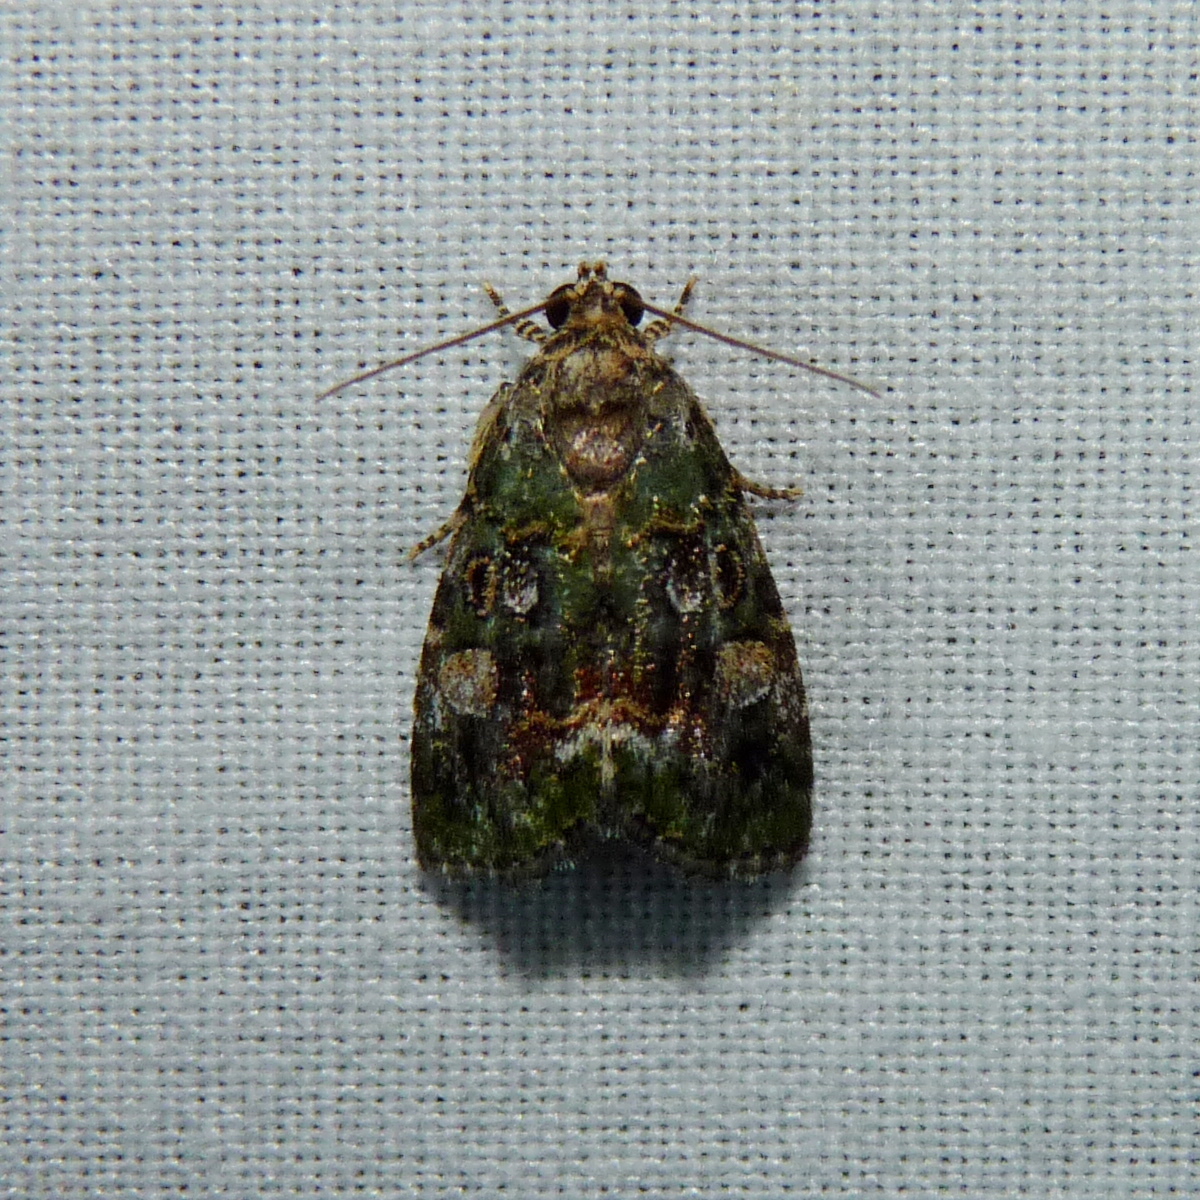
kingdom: Animalia
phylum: Arthropoda
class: Insecta
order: Lepidoptera
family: Noctuidae
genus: Lithacodia
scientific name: Lithacodia musta
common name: Small mossy glyph
